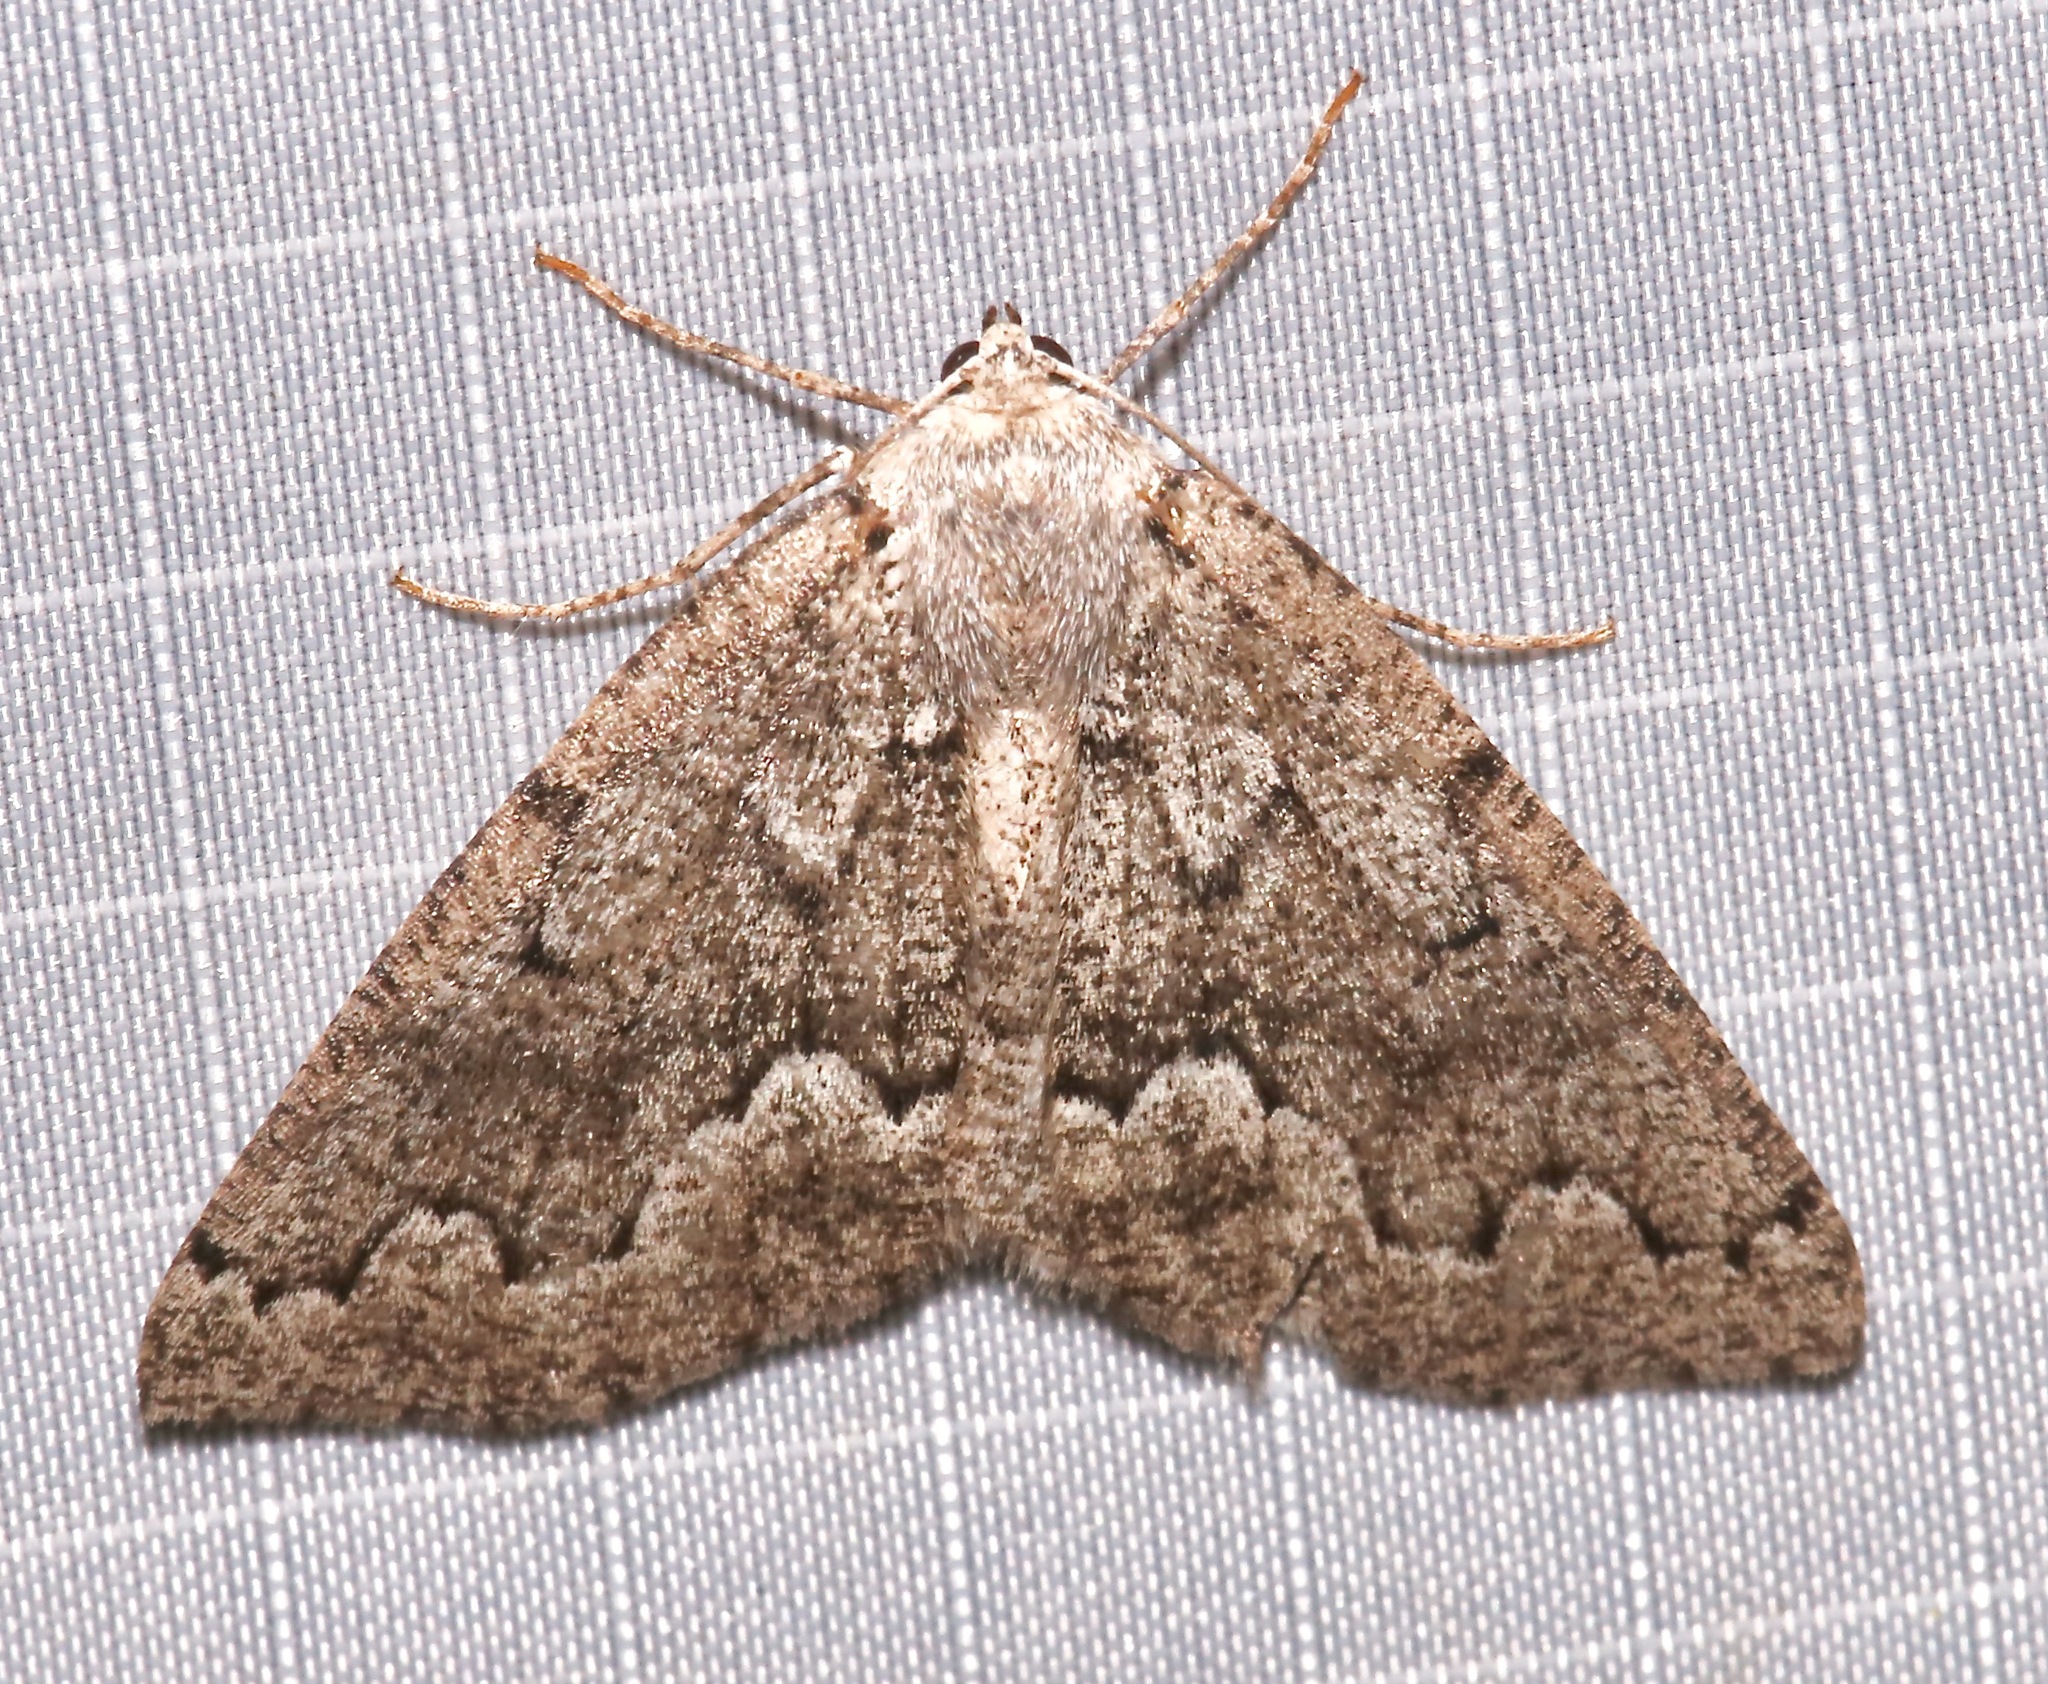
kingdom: Animalia
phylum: Arthropoda
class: Insecta
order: Lepidoptera
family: Geometridae
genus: Sabulodes
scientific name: Sabulodes
